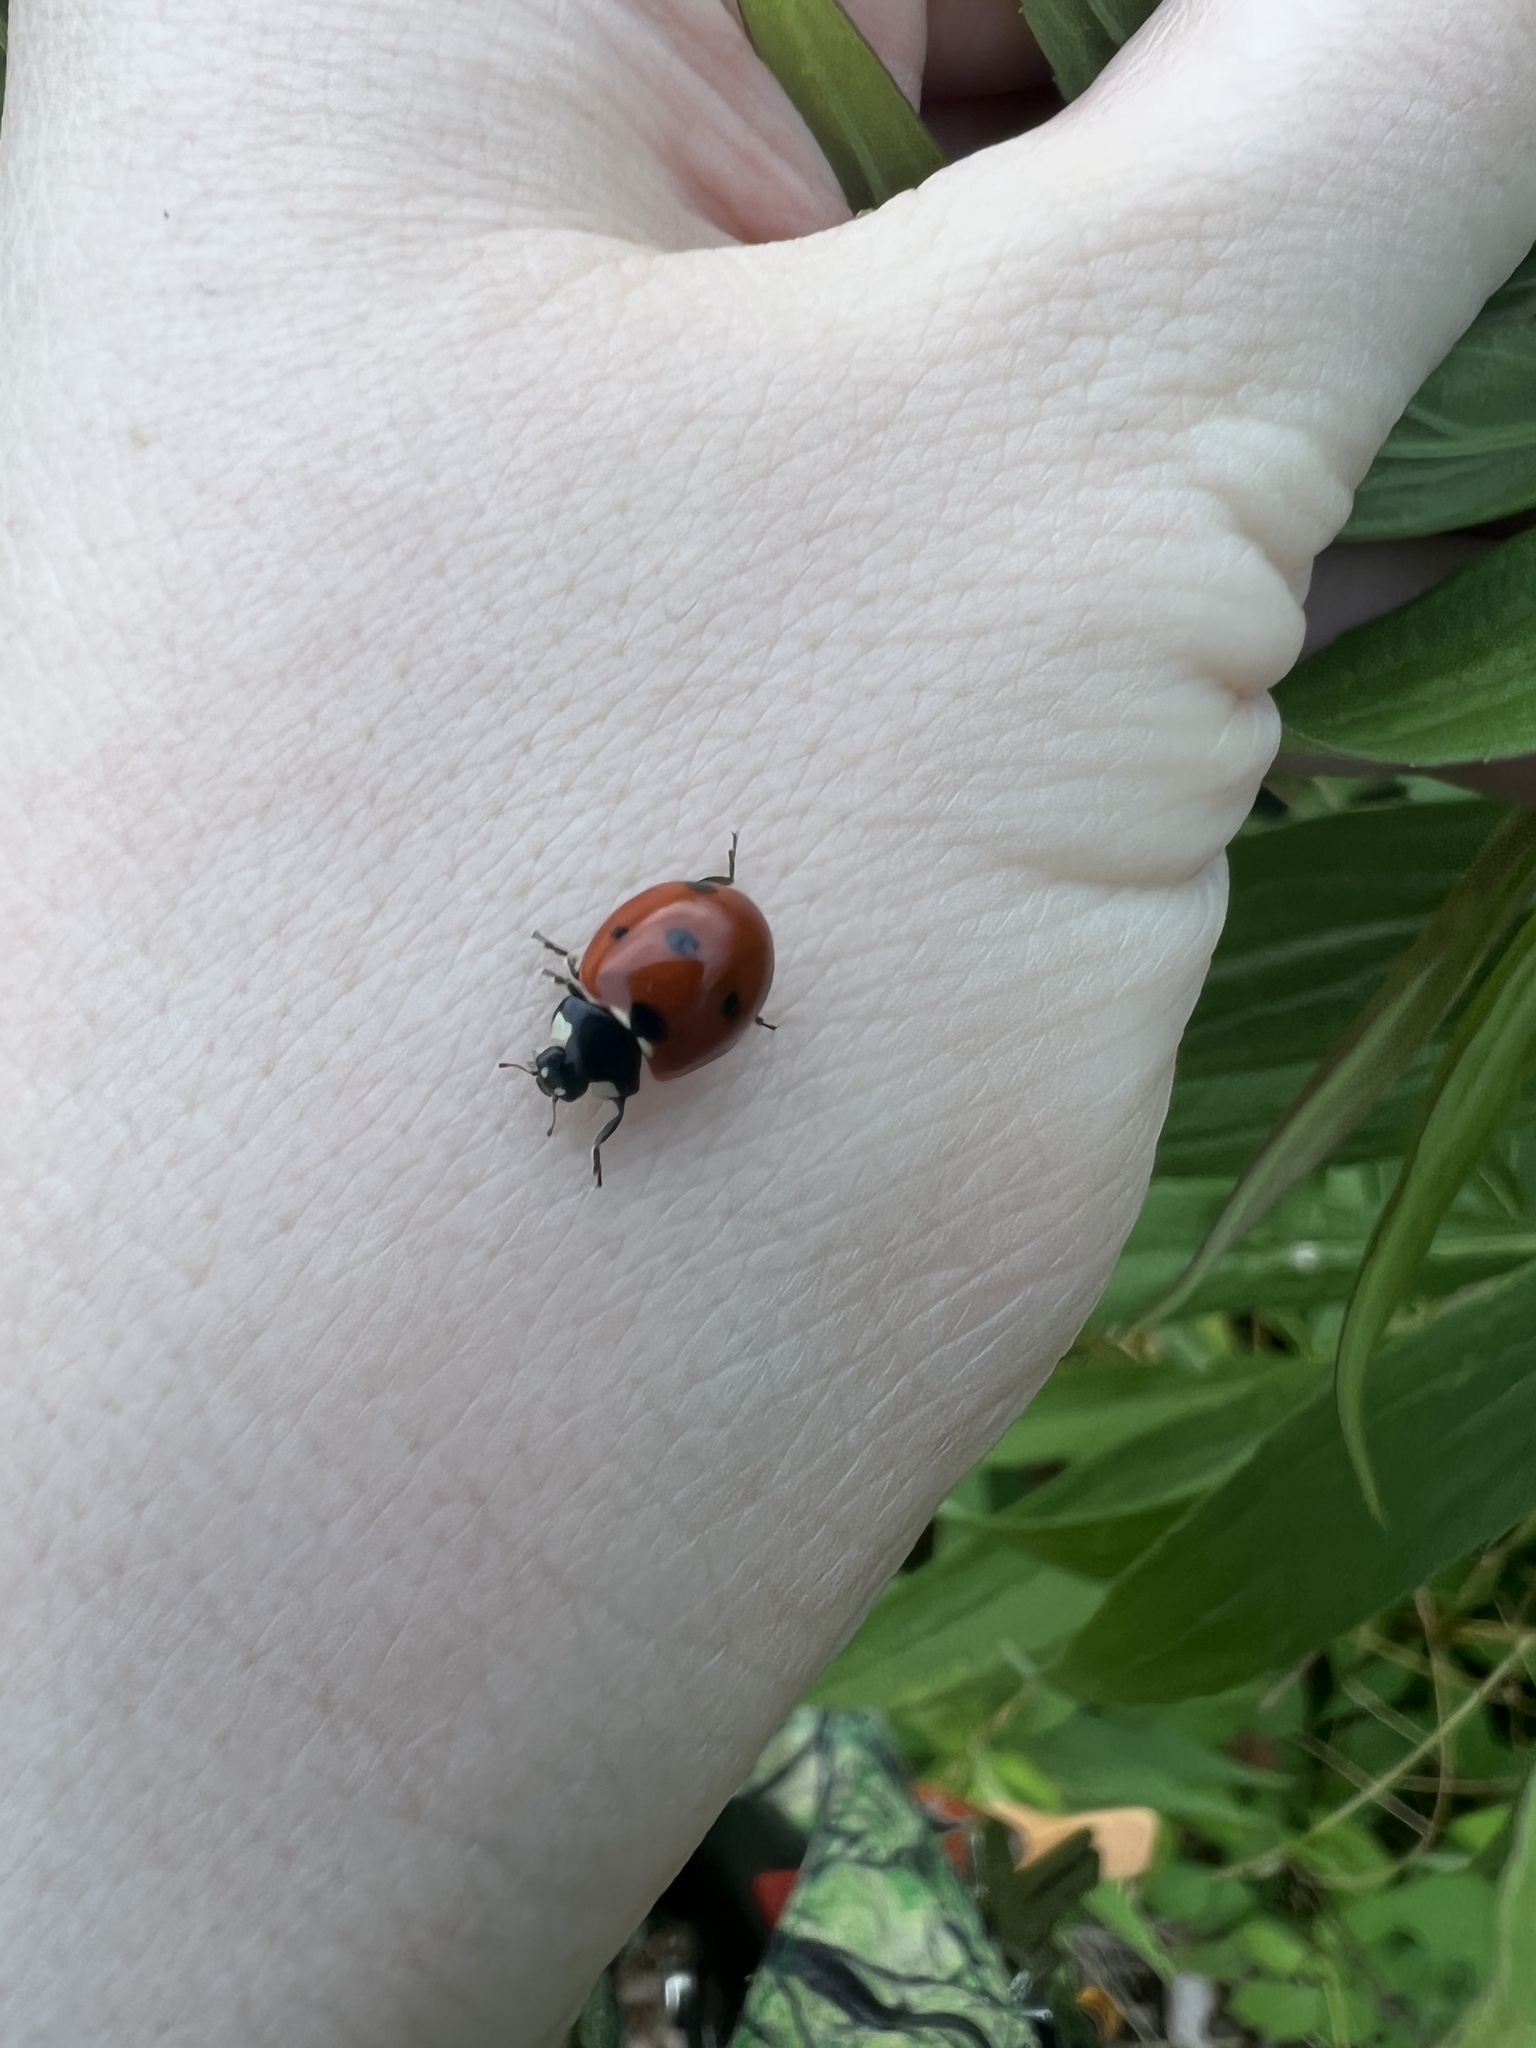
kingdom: Animalia
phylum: Arthropoda
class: Insecta
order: Coleoptera
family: Coccinellidae
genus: Coccinella
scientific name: Coccinella septempunctata
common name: Sevenspotted lady beetle
